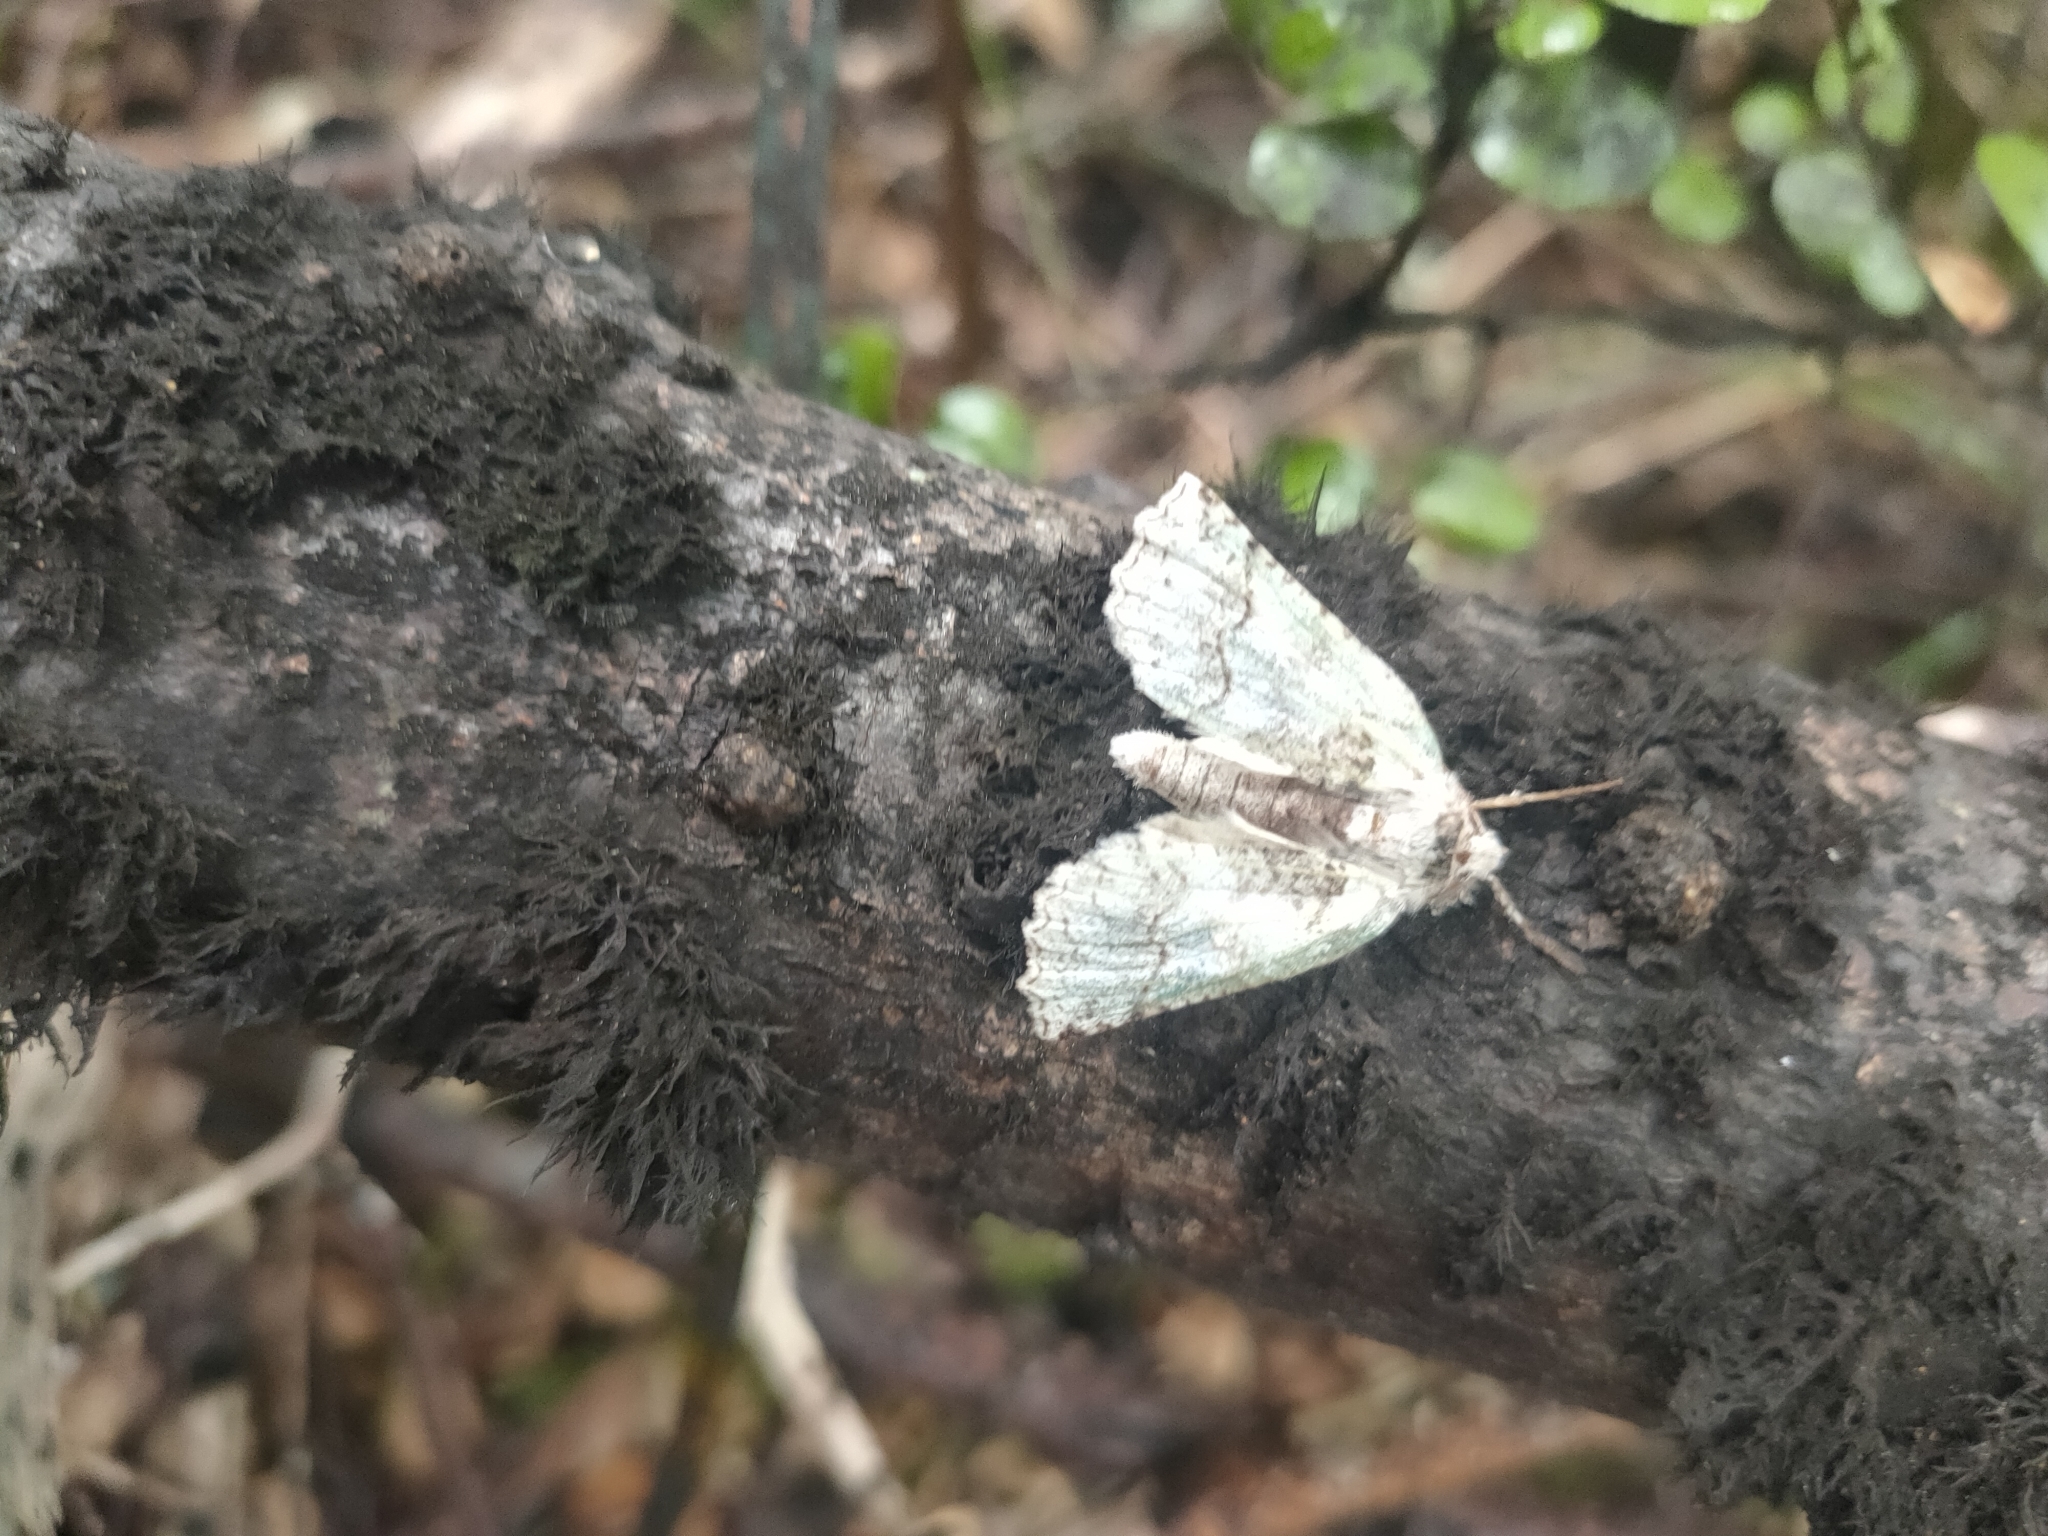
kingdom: Animalia
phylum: Arthropoda
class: Insecta
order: Lepidoptera
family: Geometridae
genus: Declana
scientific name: Declana floccosa
